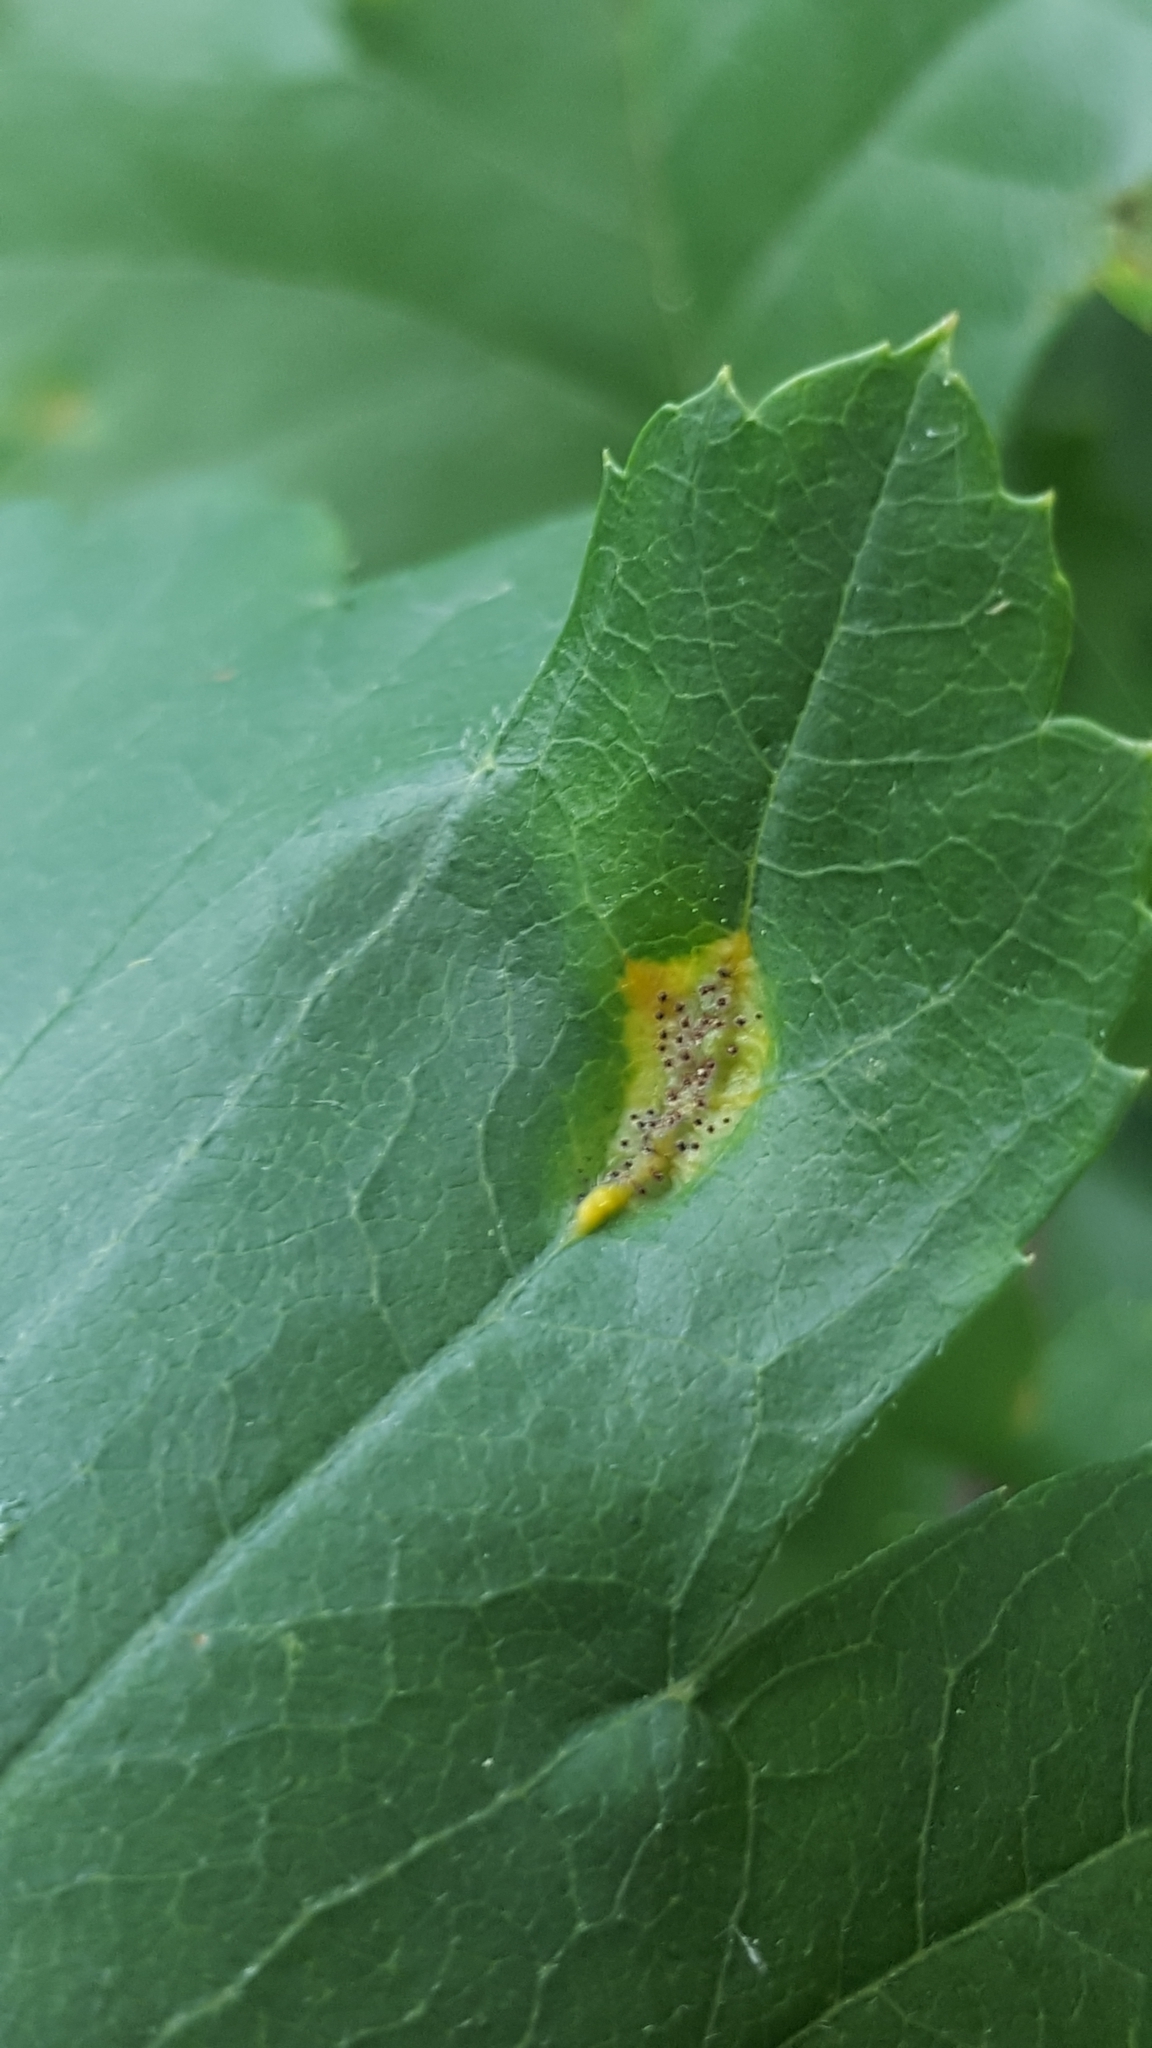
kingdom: Fungi
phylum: Basidiomycota
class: Pucciniomycetes
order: Pucciniales
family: Gymnosporangiaceae
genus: Gymnosporangium
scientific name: Gymnosporangium clavariiforme
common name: Tongues of fire
